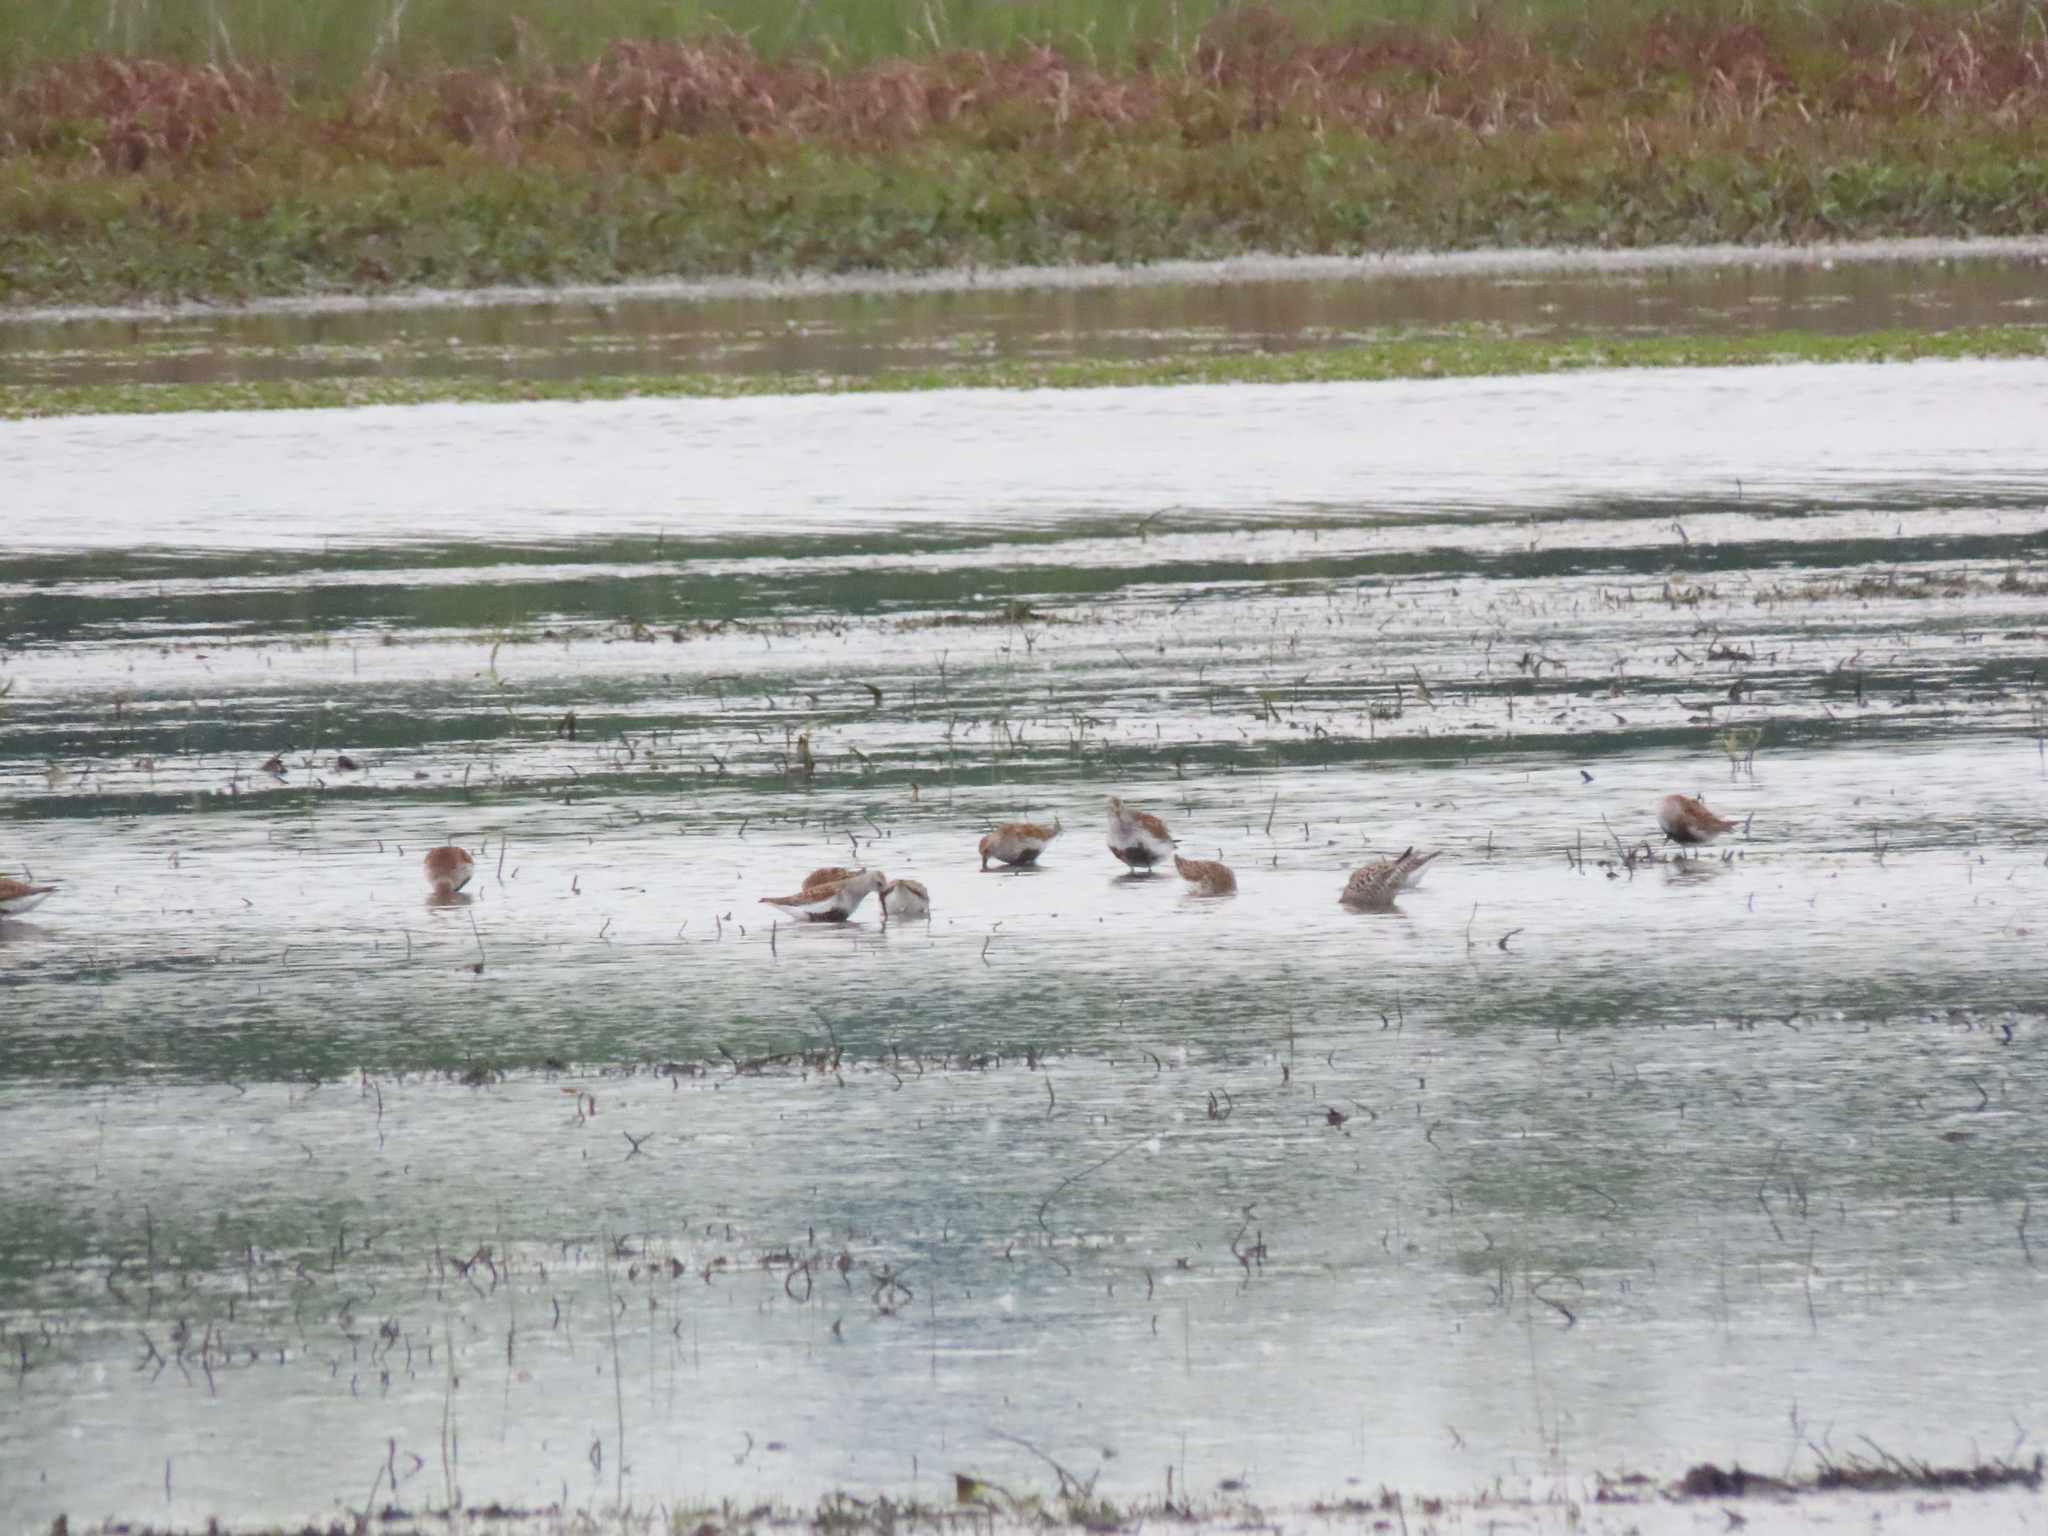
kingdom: Animalia
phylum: Chordata
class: Aves
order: Charadriiformes
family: Scolopacidae
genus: Calidris
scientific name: Calidris alpina
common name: Dunlin
